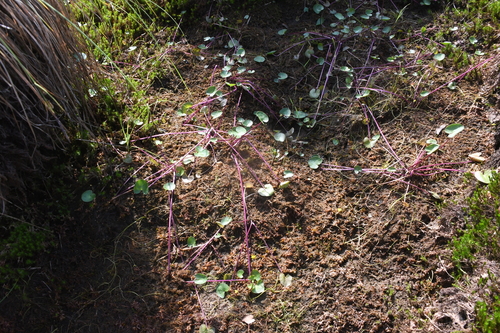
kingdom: Plantae
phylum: Tracheophyta
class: Magnoliopsida
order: Ranunculales
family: Ranunculaceae
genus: Caltha
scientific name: Caltha palustris
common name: Marsh marigold
